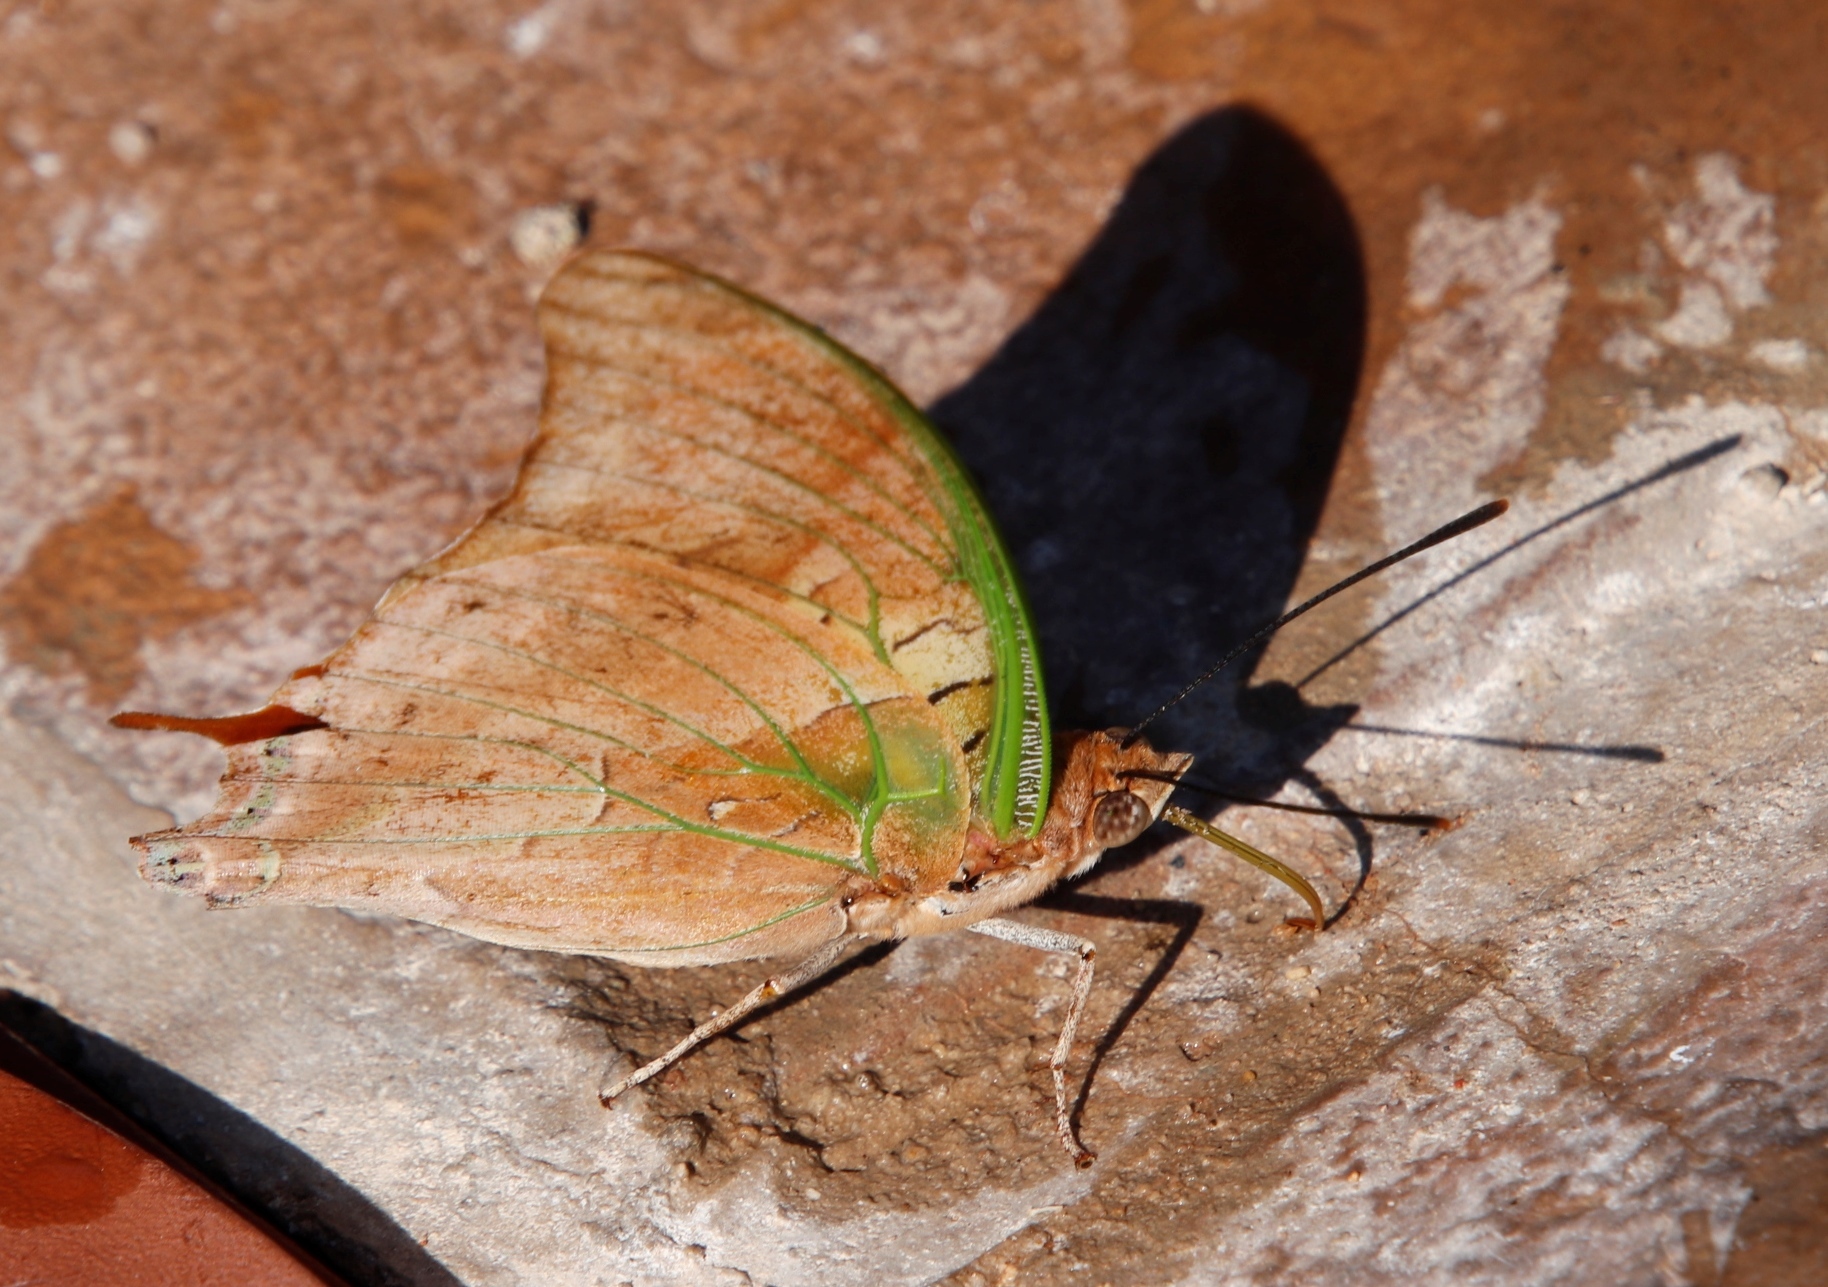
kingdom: Animalia
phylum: Arthropoda
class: Insecta
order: Lepidoptera
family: Nymphalidae
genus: Charaxes
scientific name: Charaxes candiope
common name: Green-veined charaxes
